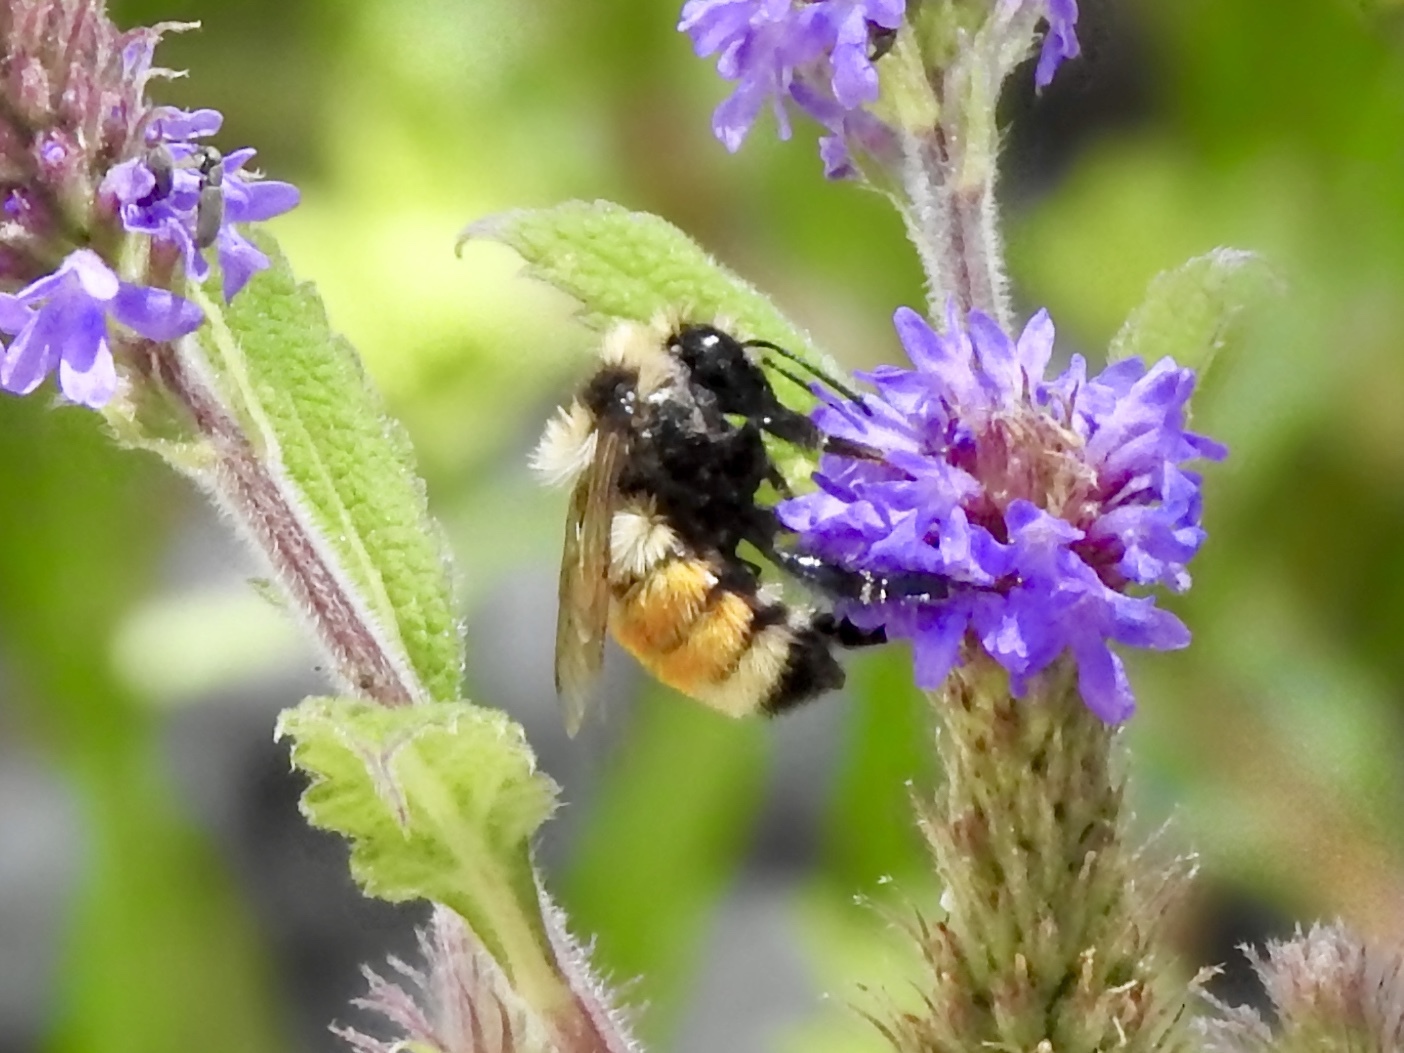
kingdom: Animalia
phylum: Arthropoda
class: Insecta
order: Hymenoptera
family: Apidae
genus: Bombus
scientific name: Bombus huntii
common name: Hunt bumble bee
